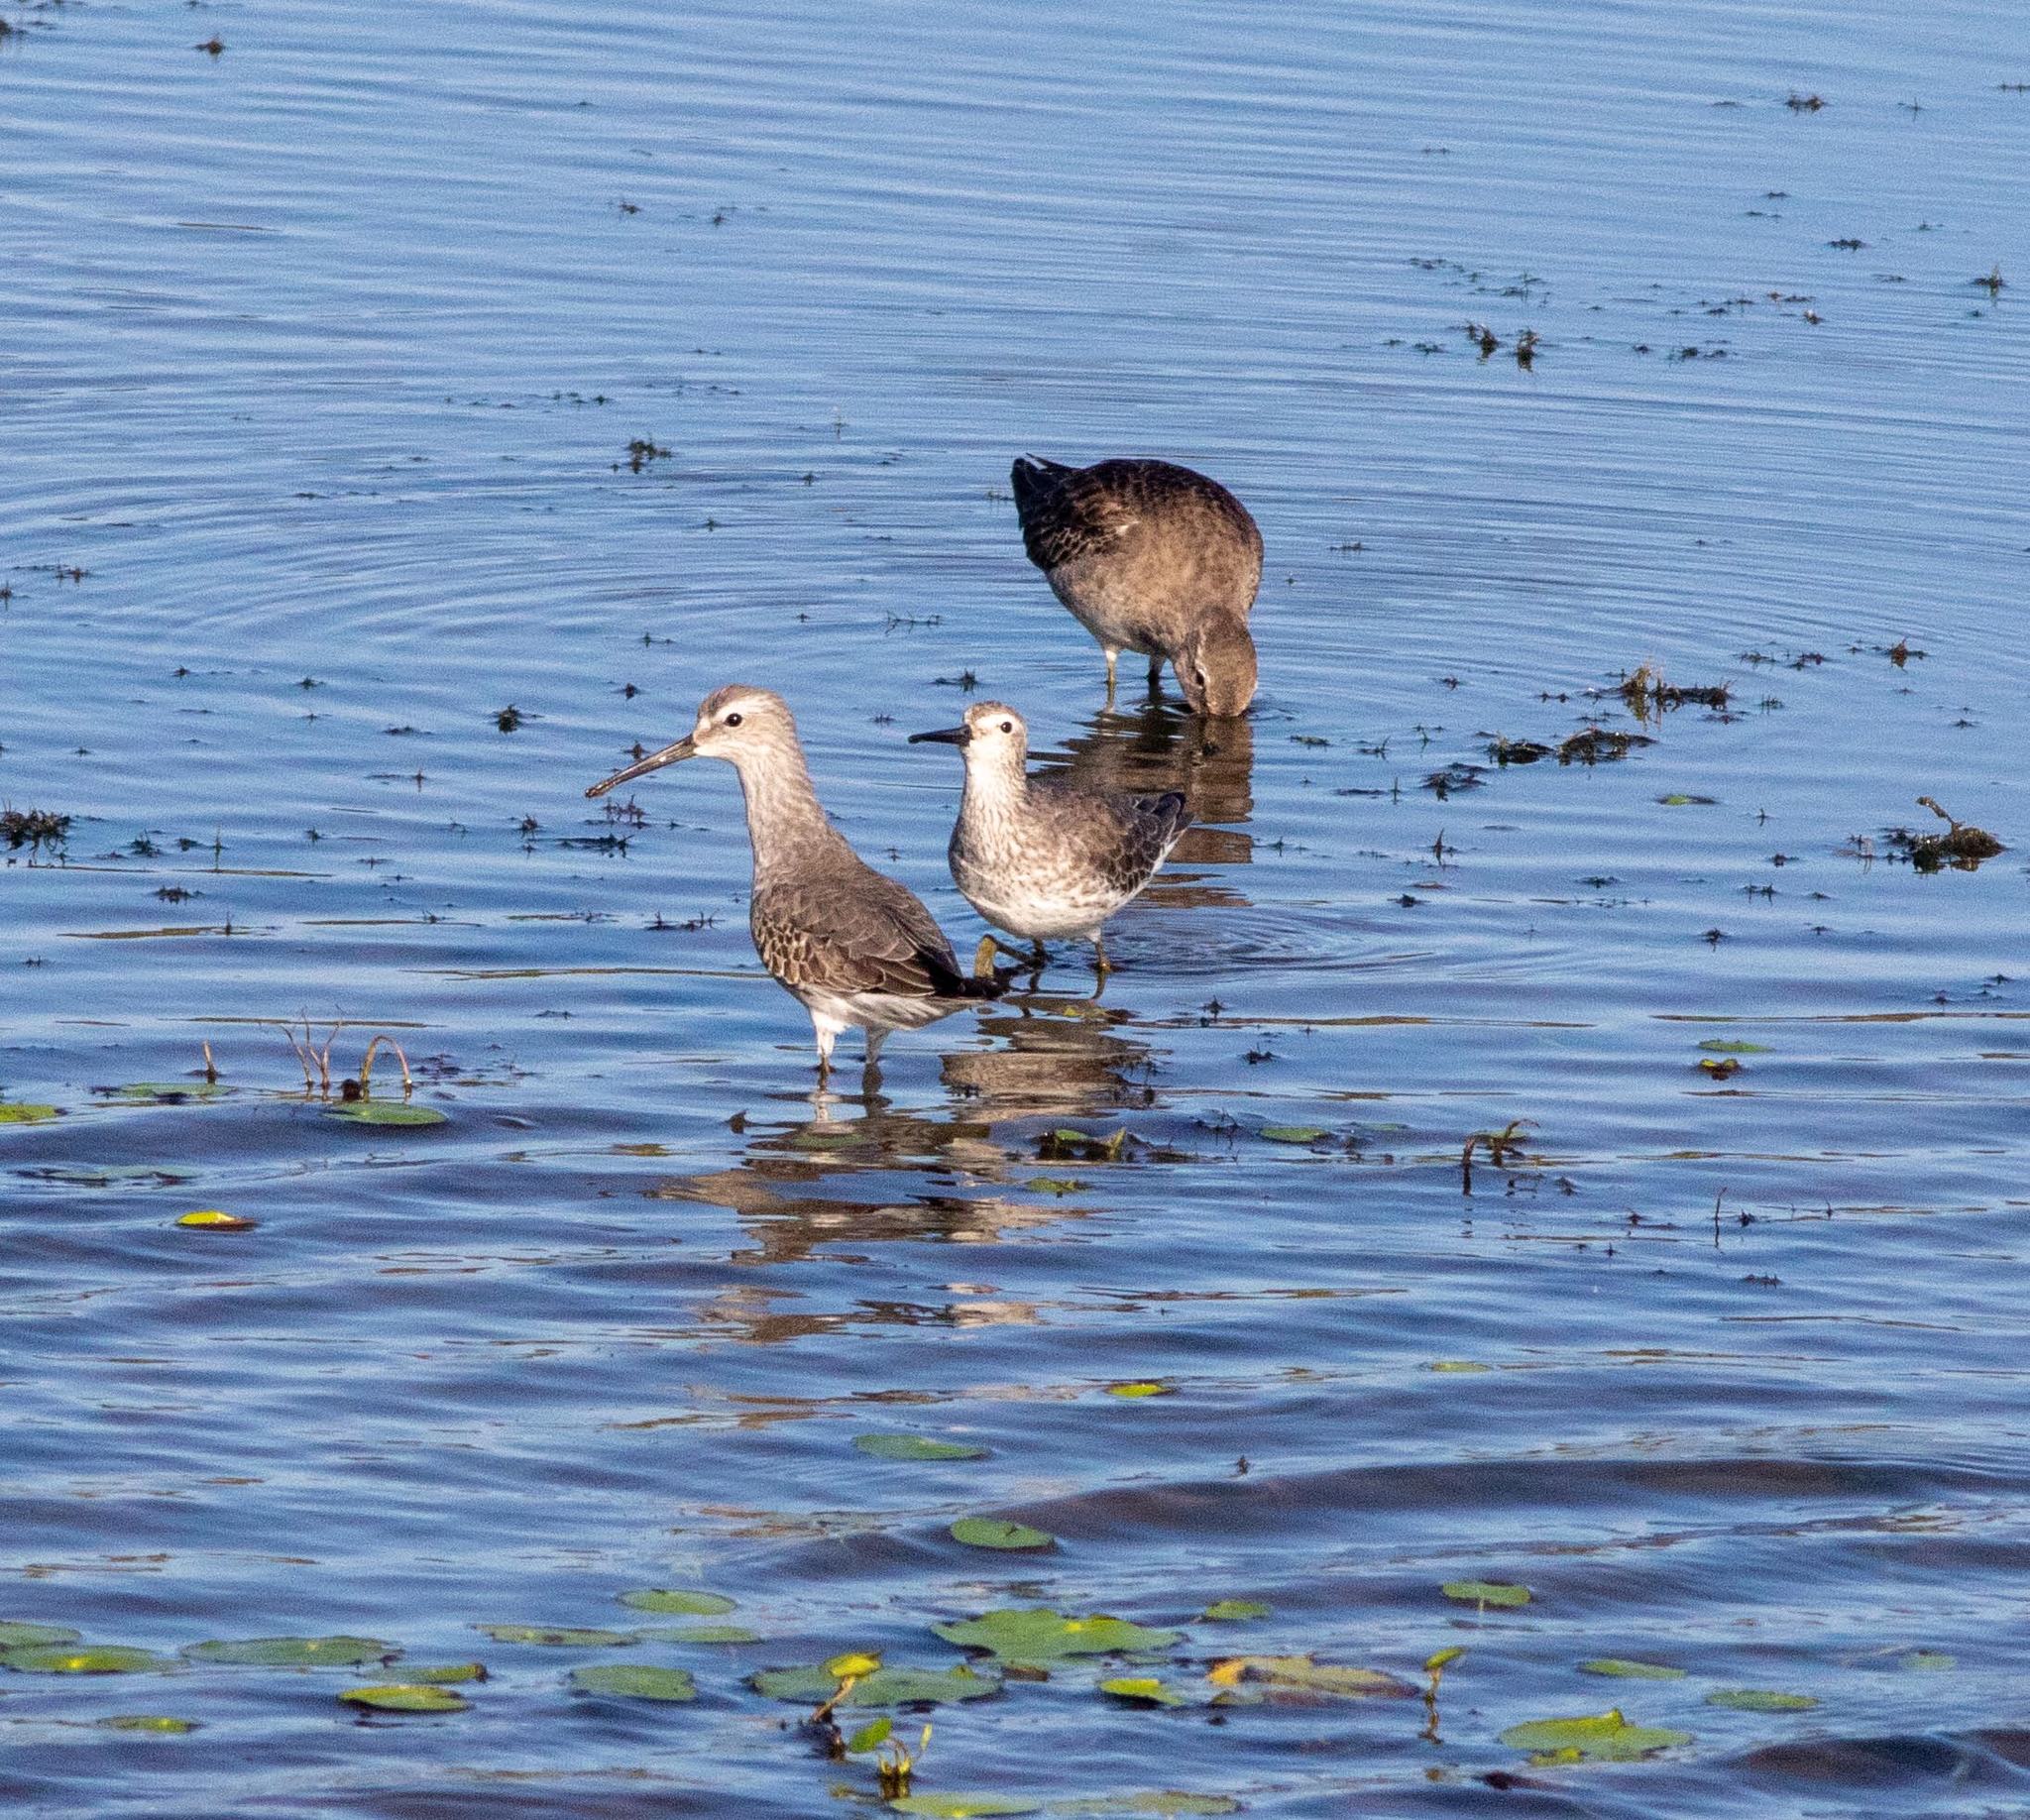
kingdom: Animalia
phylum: Chordata
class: Aves
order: Charadriiformes
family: Scolopacidae
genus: Calidris
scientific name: Calidris himantopus
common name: Stilt sandpiper
